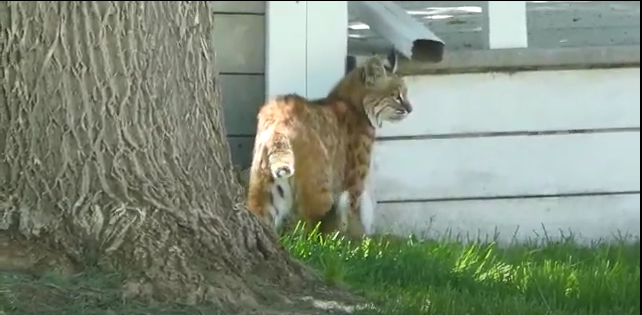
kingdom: Animalia
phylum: Chordata
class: Mammalia
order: Carnivora
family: Felidae
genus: Lynx
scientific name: Lynx rufus
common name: Bobcat
